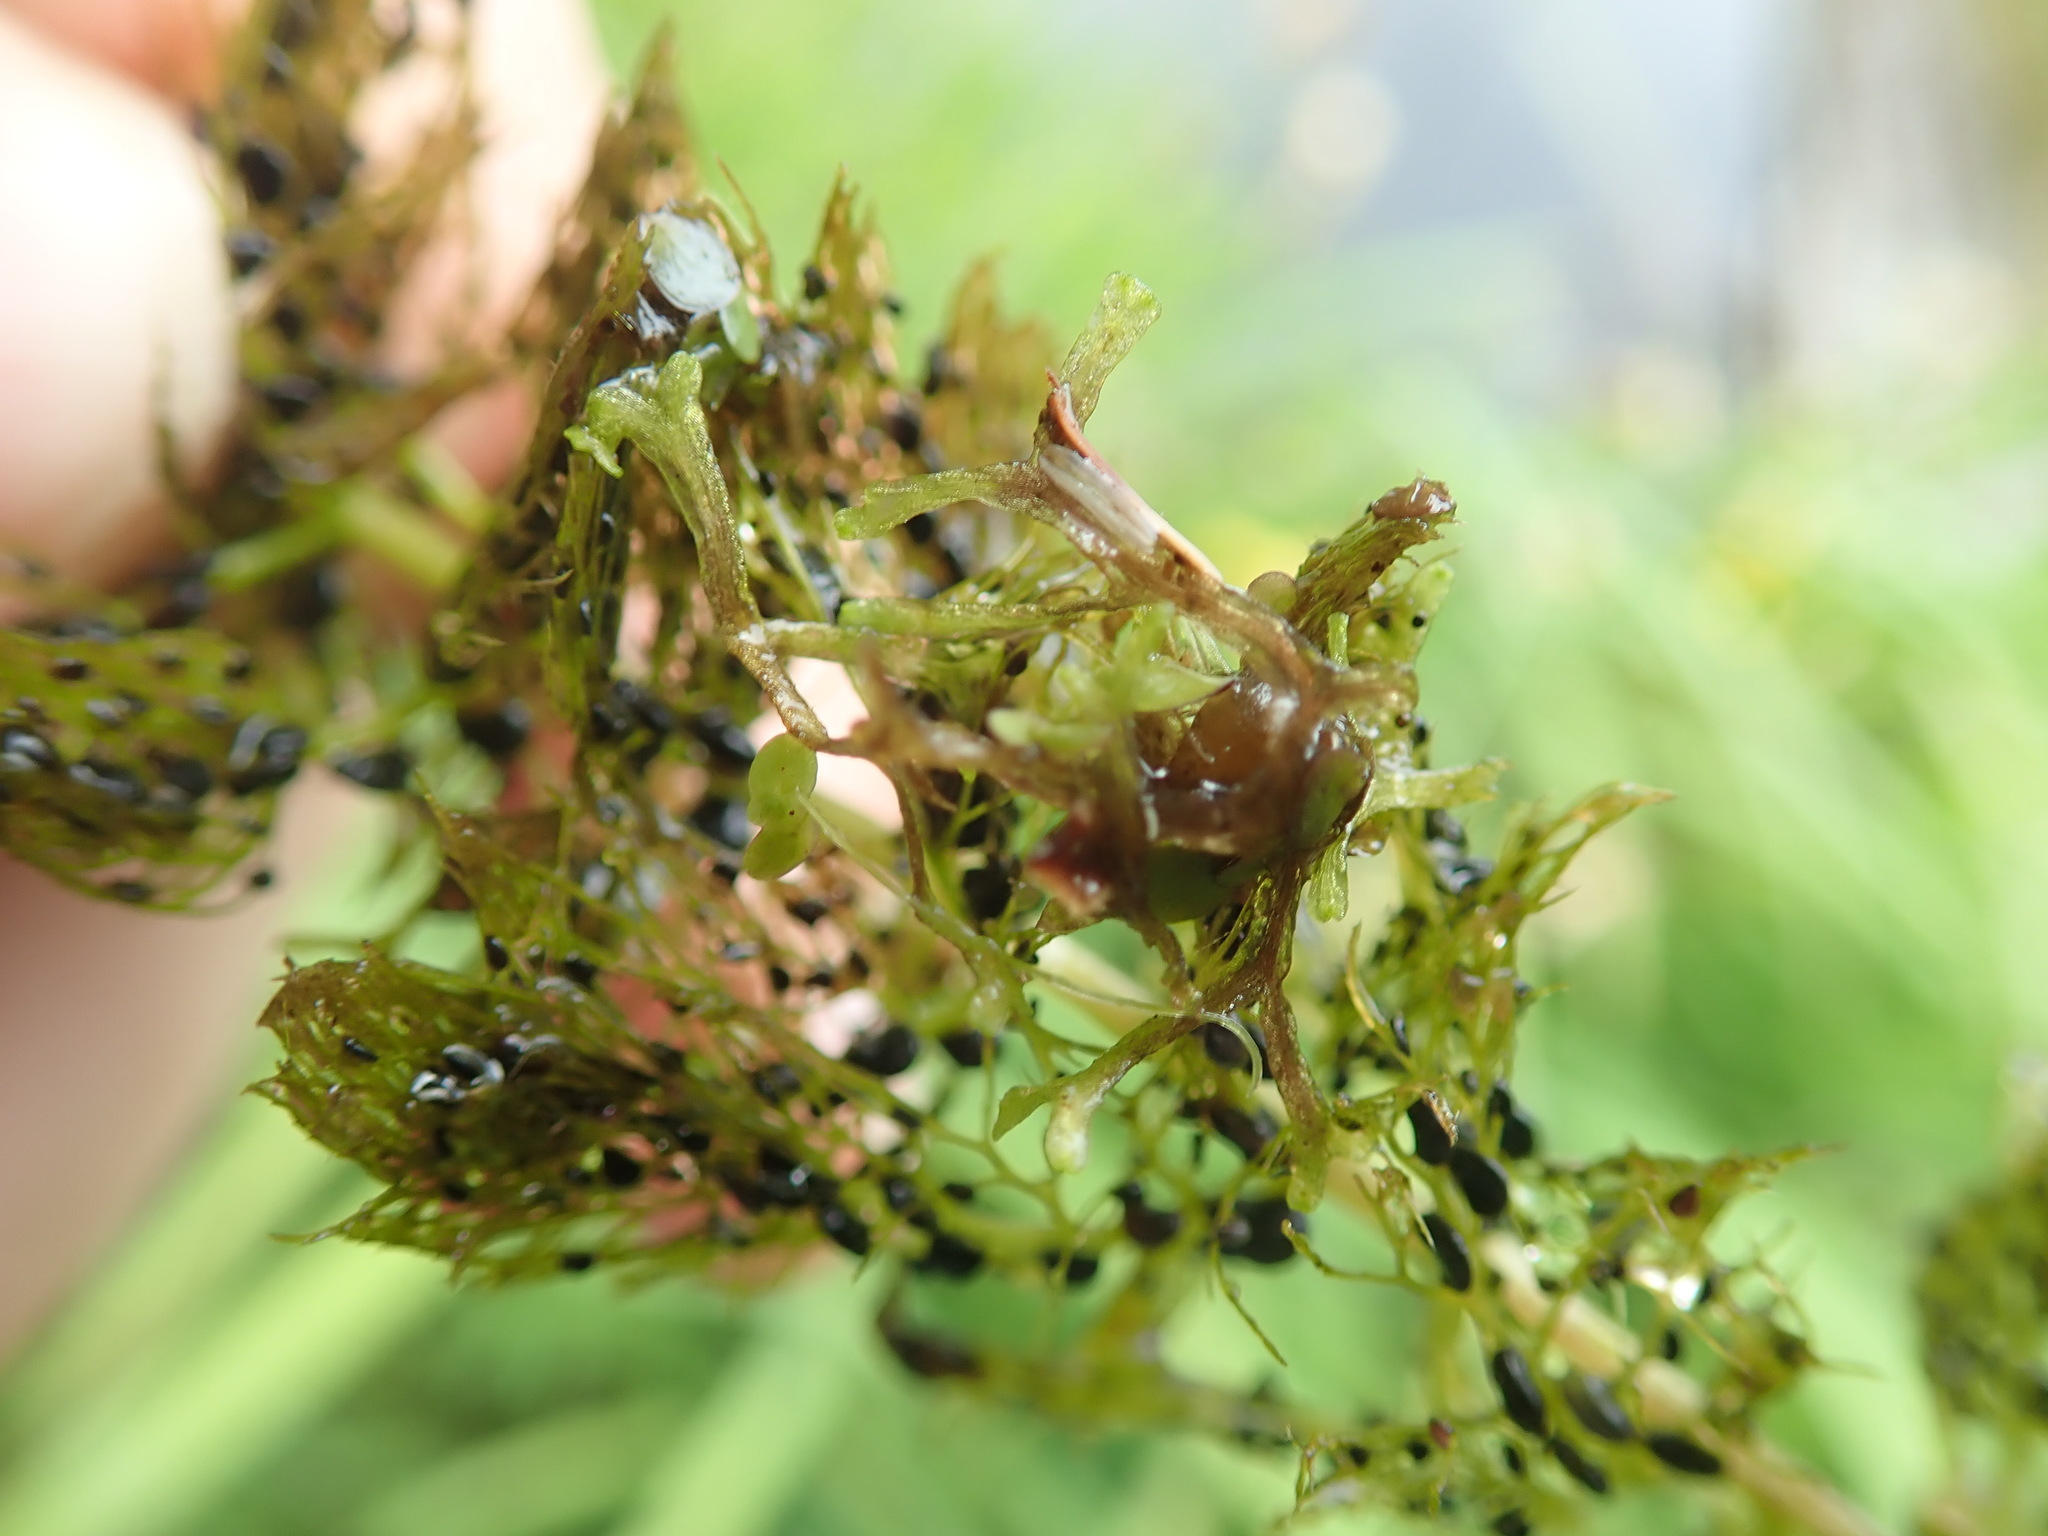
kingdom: Plantae
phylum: Marchantiophyta
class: Marchantiopsida
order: Marchantiales
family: Ricciaceae
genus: Riccia
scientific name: Riccia fluitans
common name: Floating crystalwort
